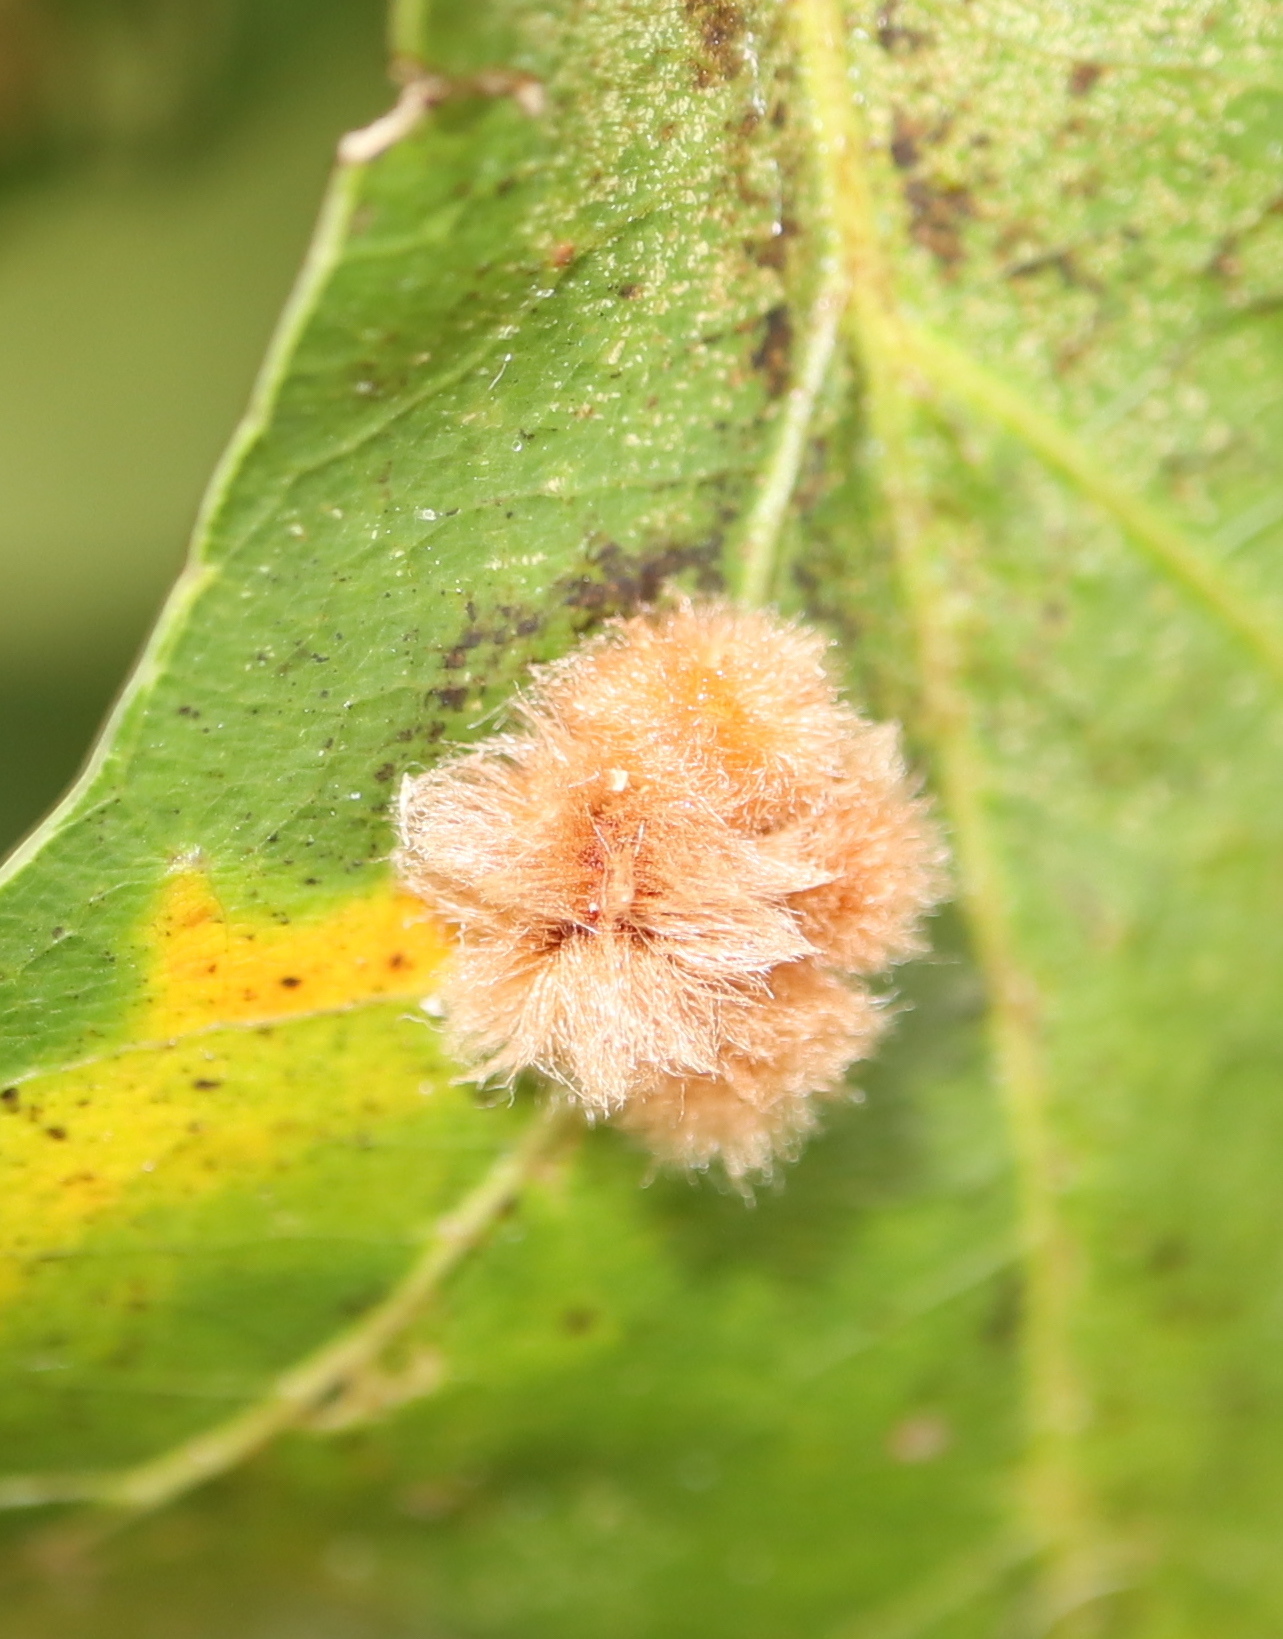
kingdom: Animalia
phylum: Arthropoda
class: Insecta
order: Hymenoptera
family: Cynipidae
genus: Callirhytis
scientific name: Callirhytis
